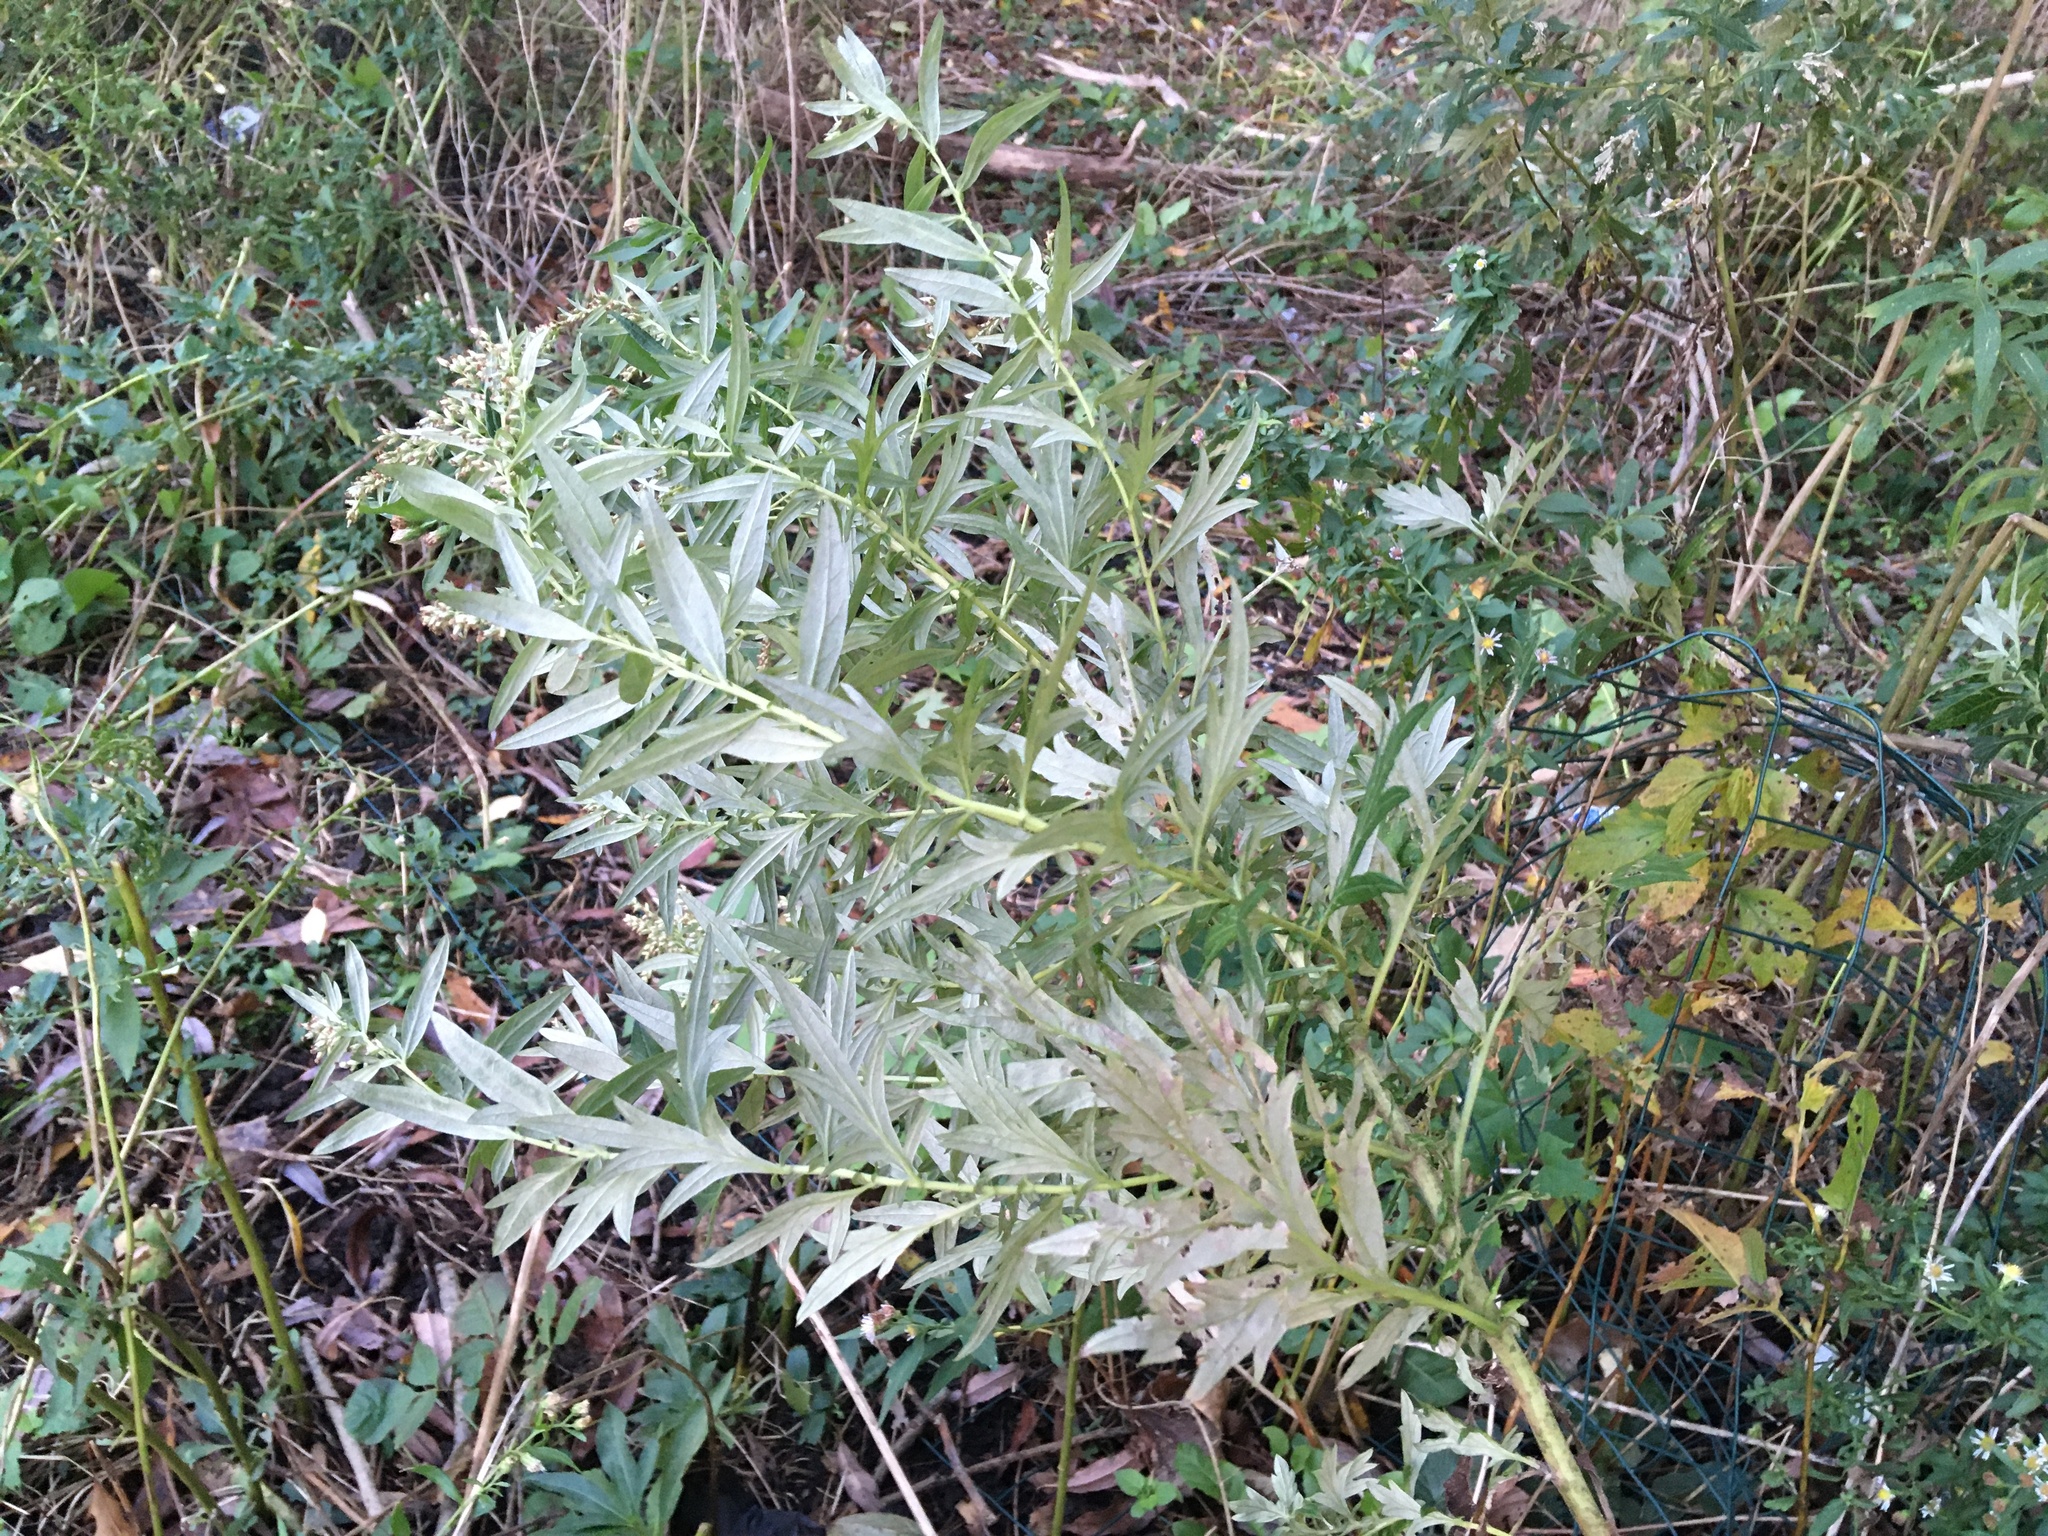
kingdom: Plantae
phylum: Tracheophyta
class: Magnoliopsida
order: Asterales
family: Asteraceae
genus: Artemisia
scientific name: Artemisia vulgaris
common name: Mugwort
